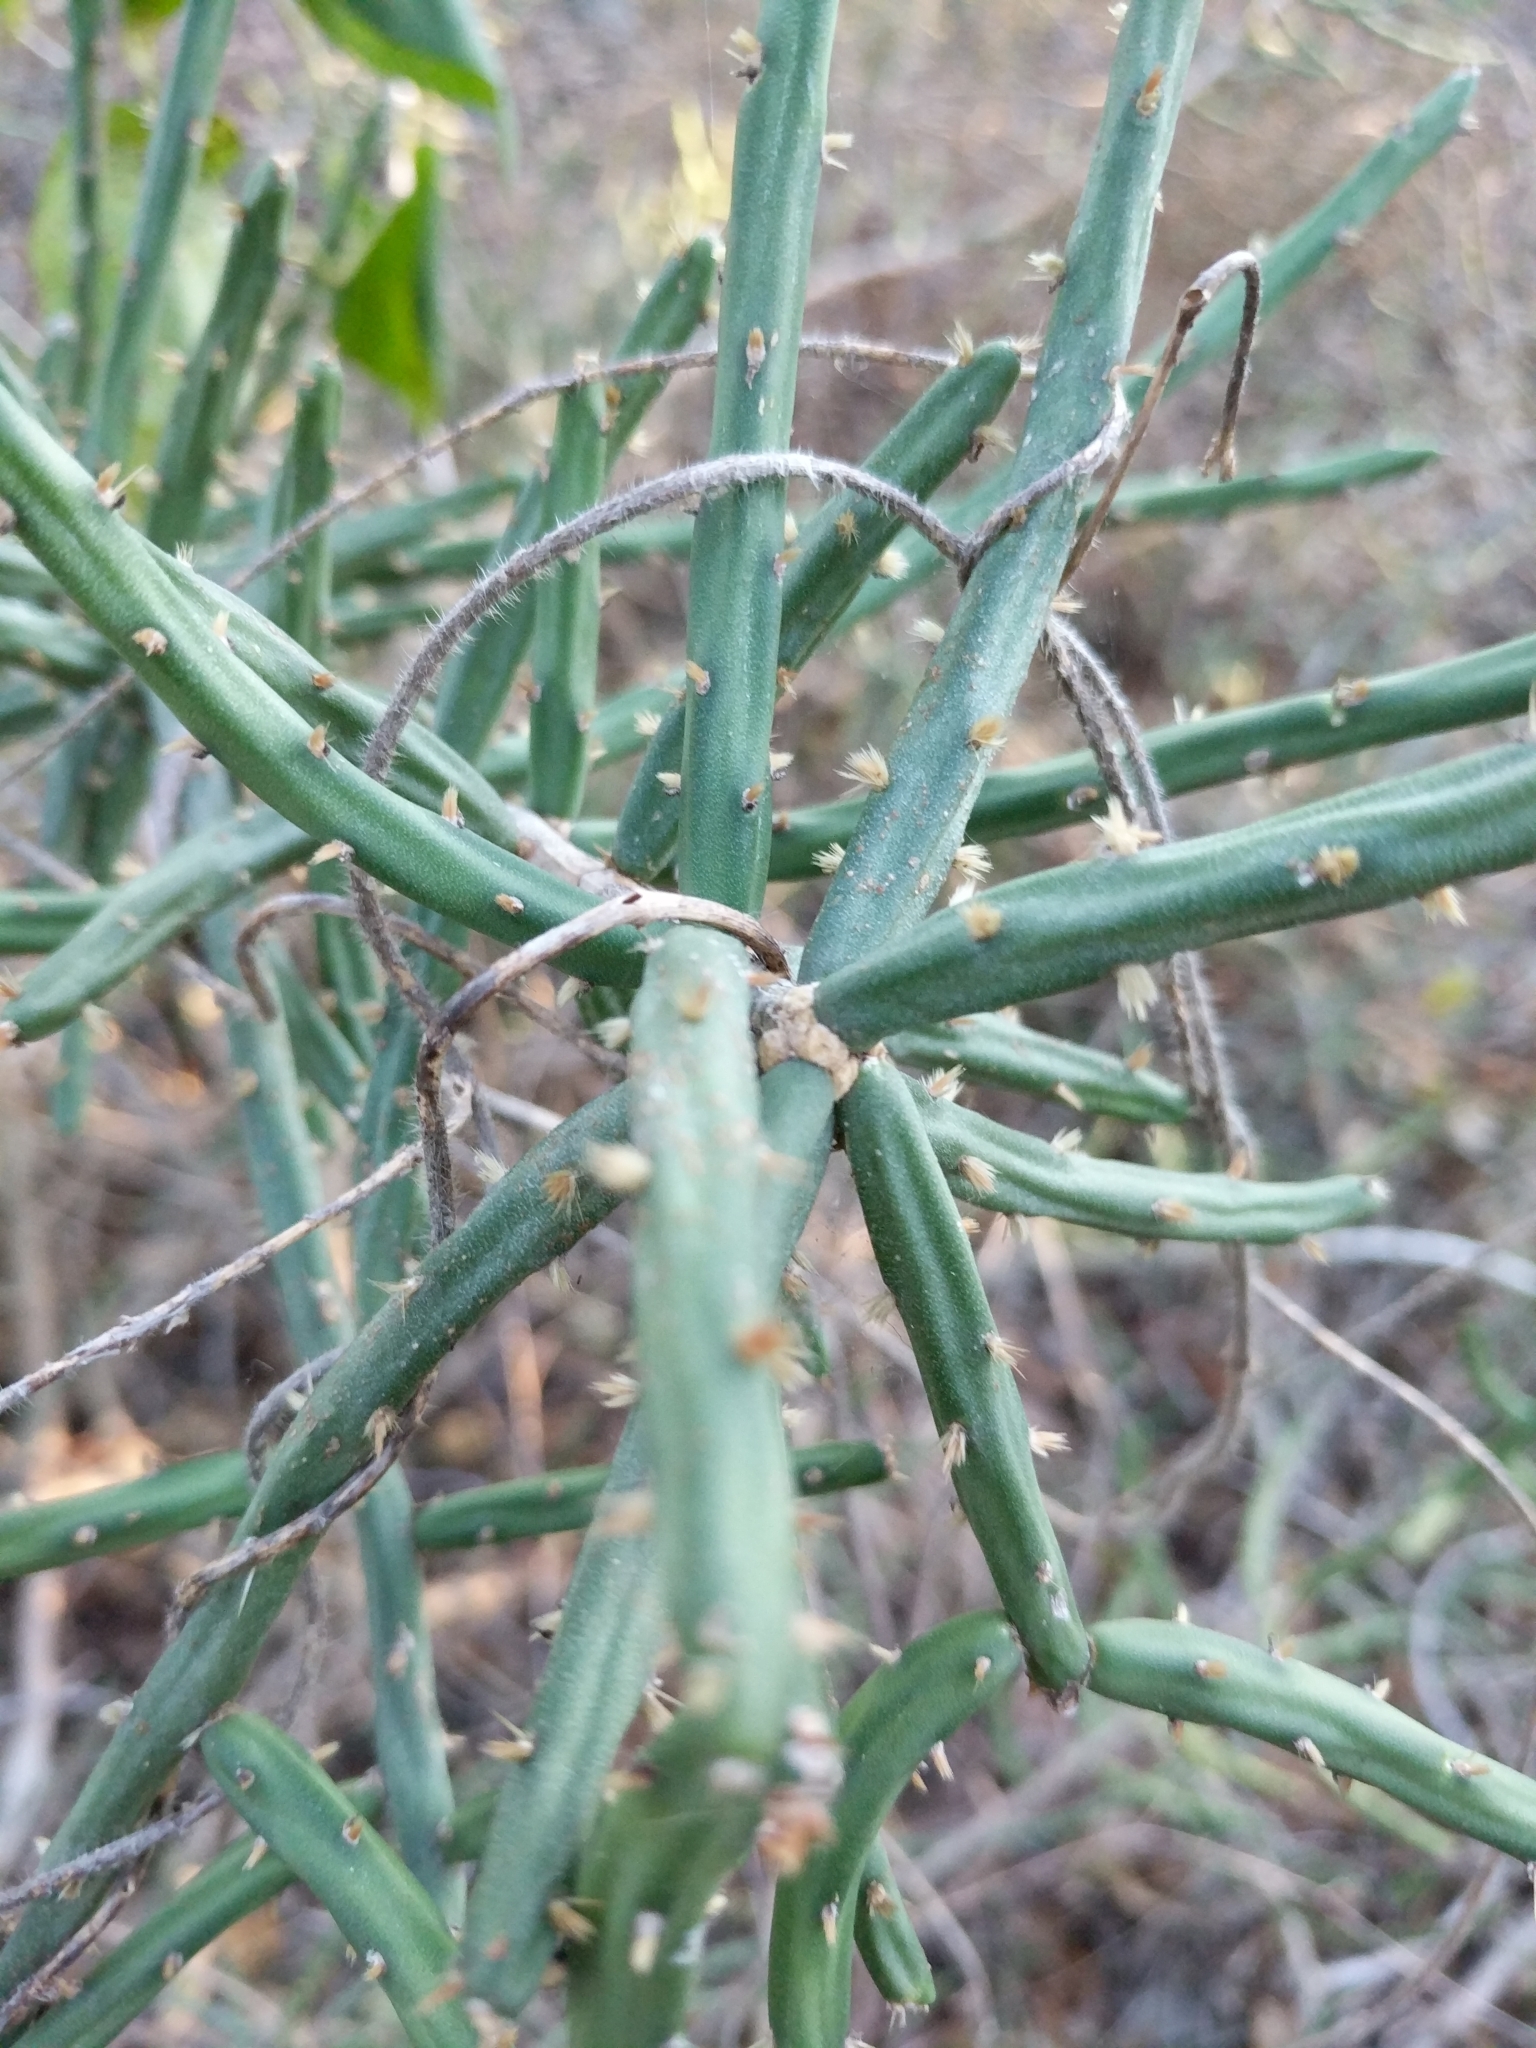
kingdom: Plantae
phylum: Tracheophyta
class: Magnoliopsida
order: Caryophyllales
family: Cactaceae
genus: Cylindropuntia
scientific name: Cylindropuntia leptocaulis
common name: Christmas cactus
